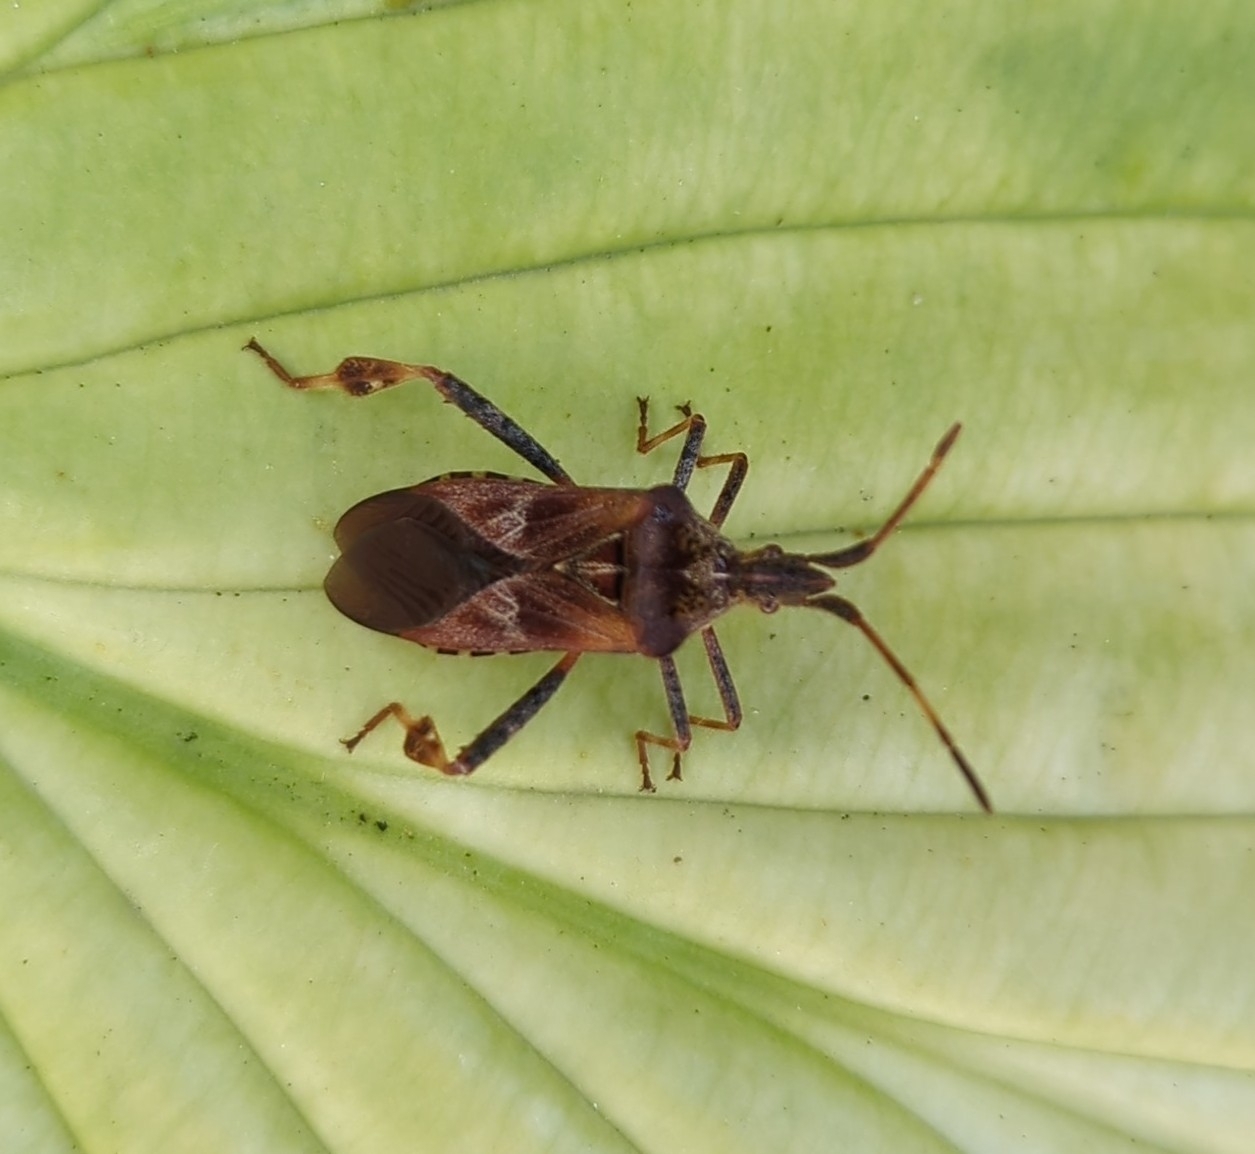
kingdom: Animalia
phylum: Arthropoda
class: Insecta
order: Hemiptera
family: Coreidae
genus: Leptoglossus
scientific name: Leptoglossus occidentalis
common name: Western conifer-seed bug
